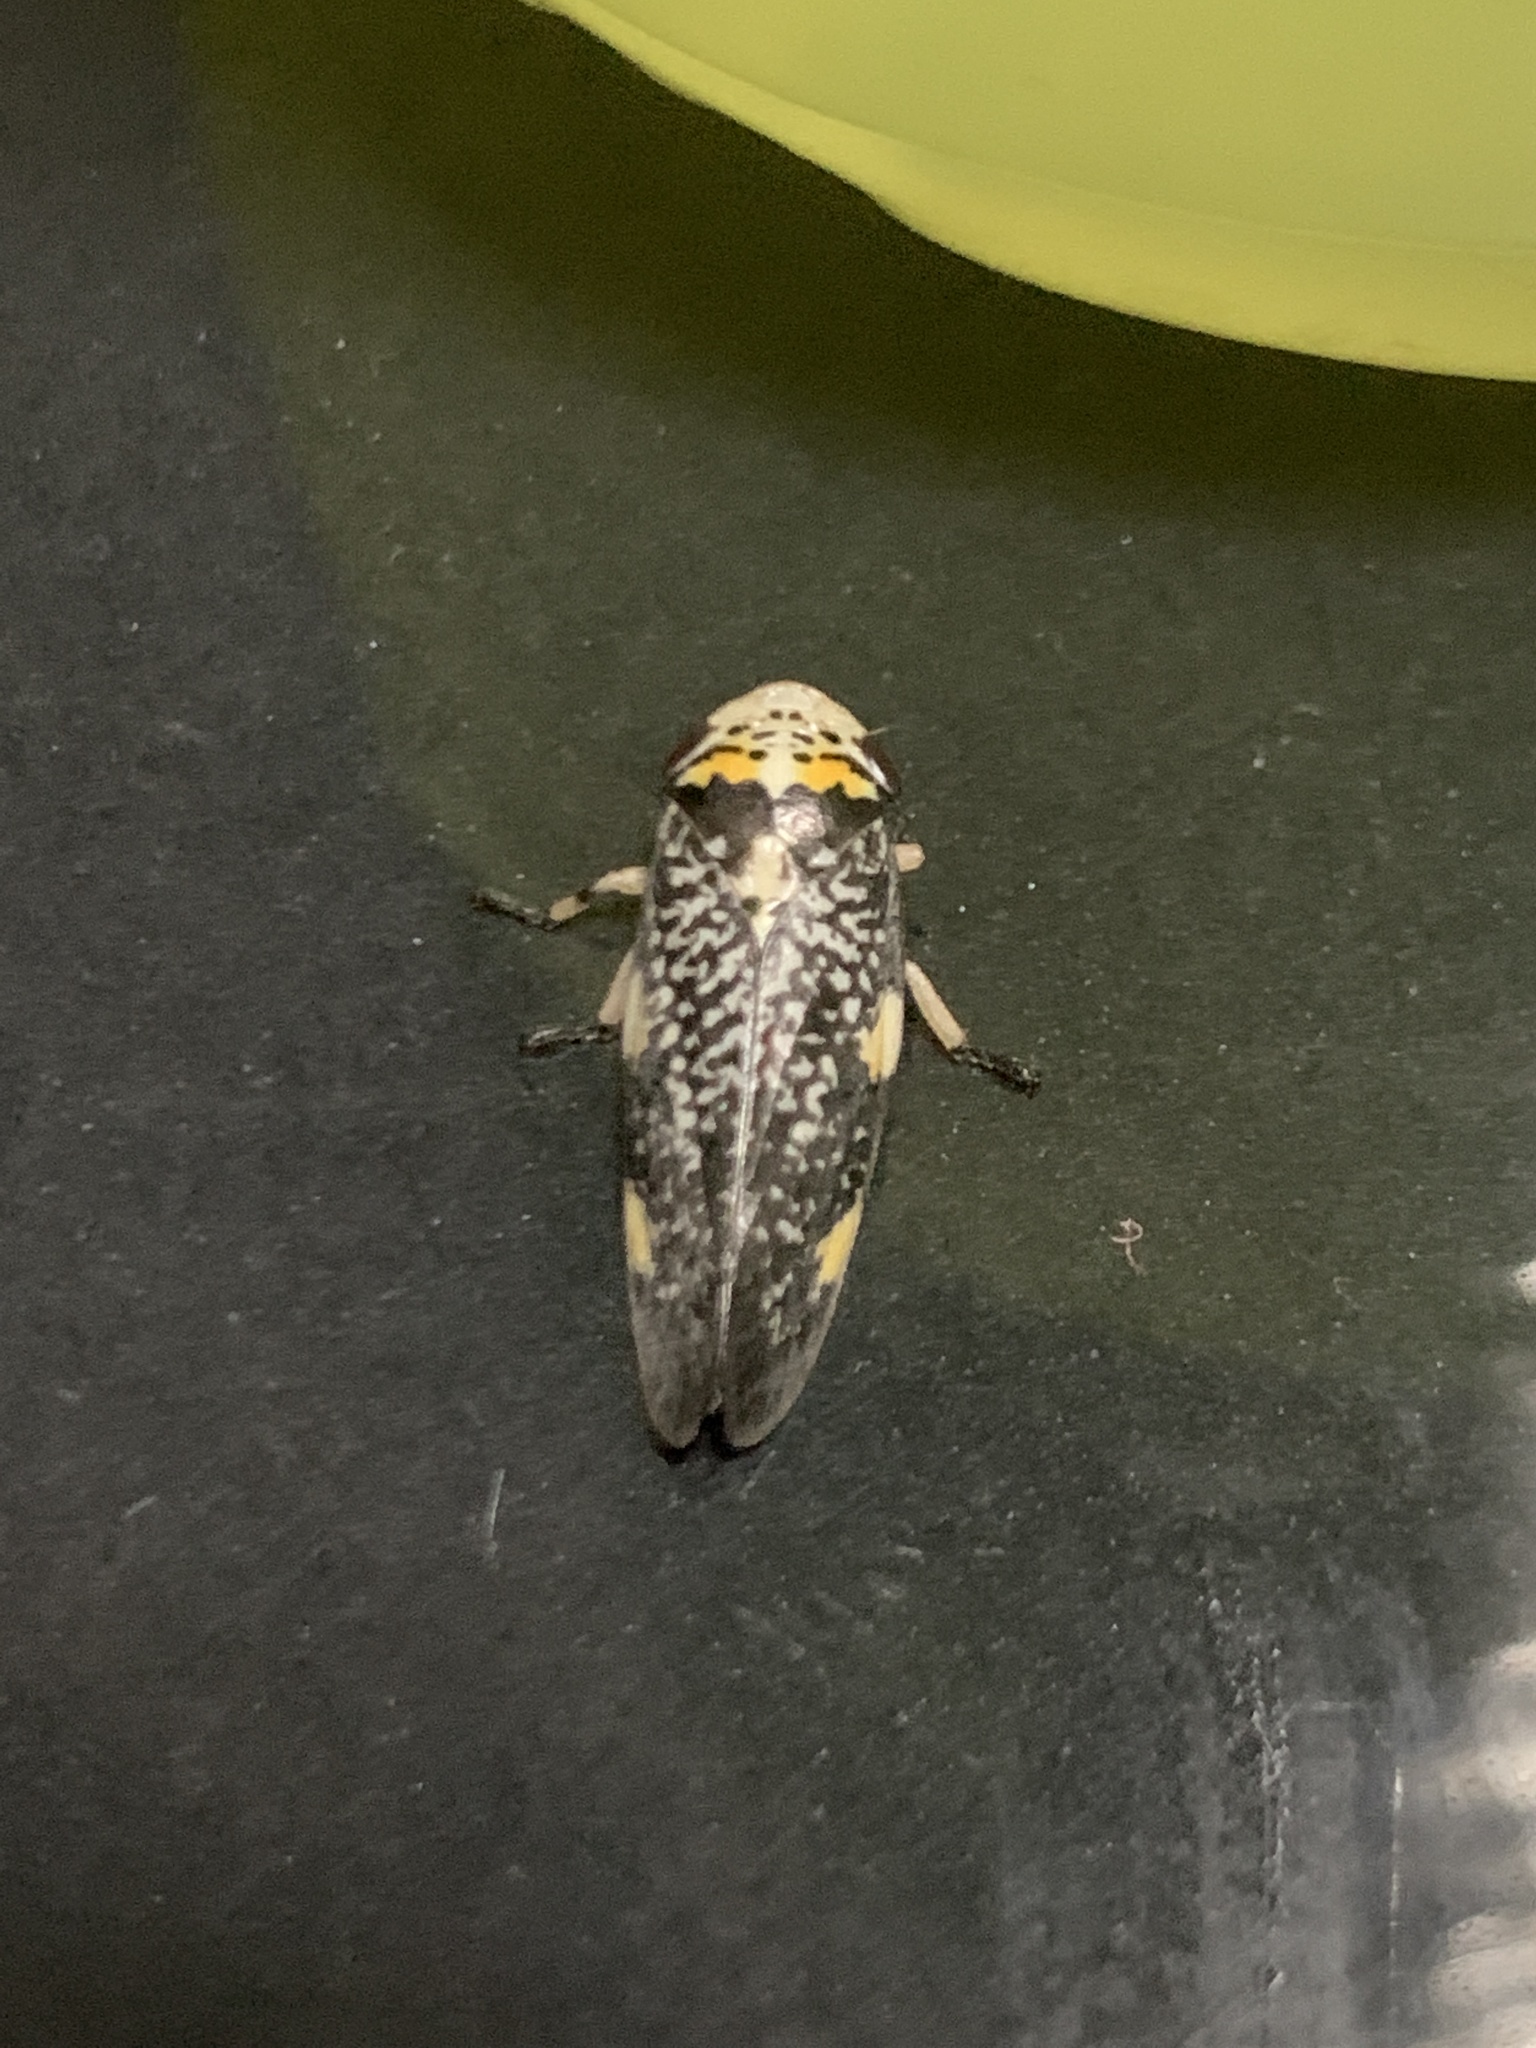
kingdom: Animalia
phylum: Arthropoda
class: Insecta
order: Hemiptera
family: Aphrophoridae
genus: Ptyelus
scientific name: Ptyelus grossus
